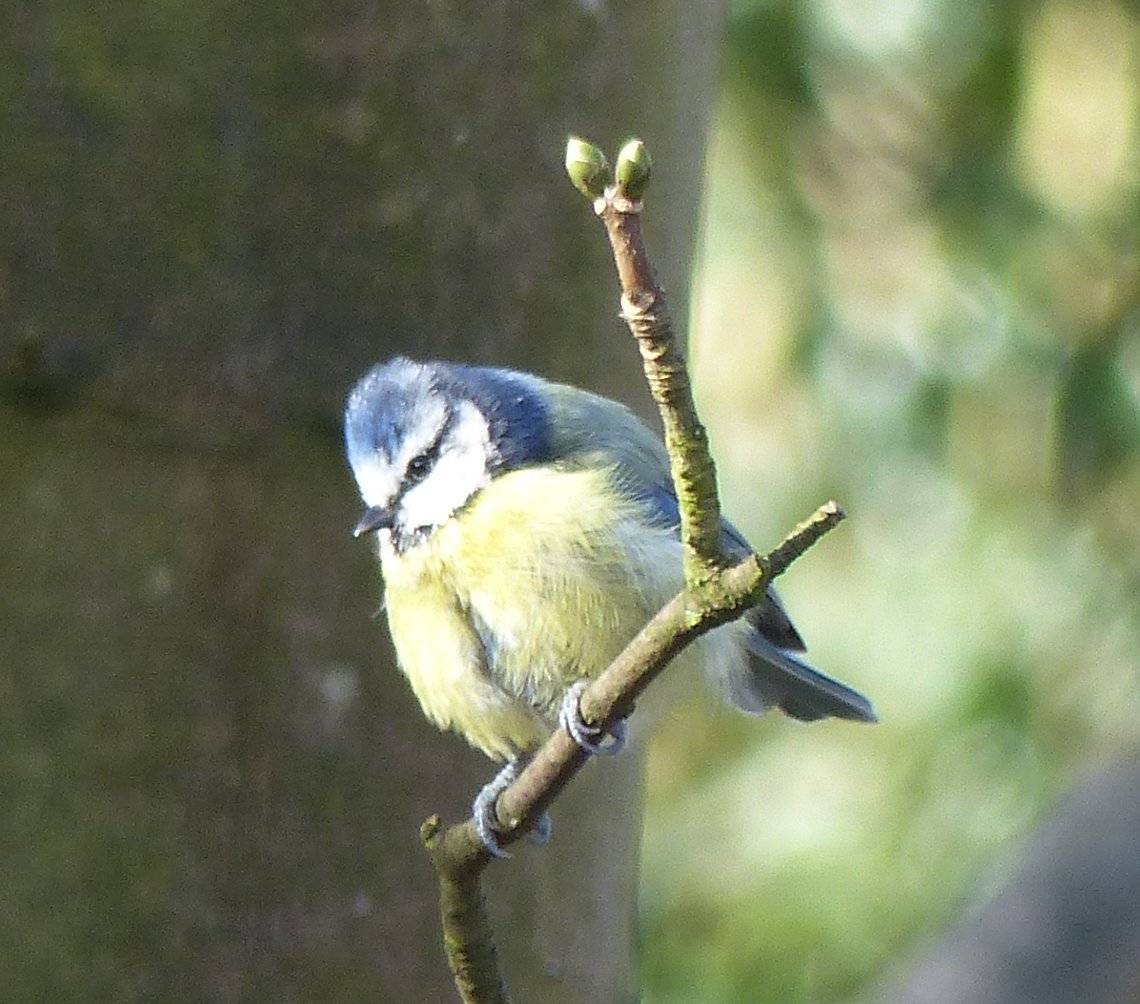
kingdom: Animalia
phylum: Chordata
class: Aves
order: Passeriformes
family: Paridae
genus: Cyanistes
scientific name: Cyanistes caeruleus
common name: Eurasian blue tit
